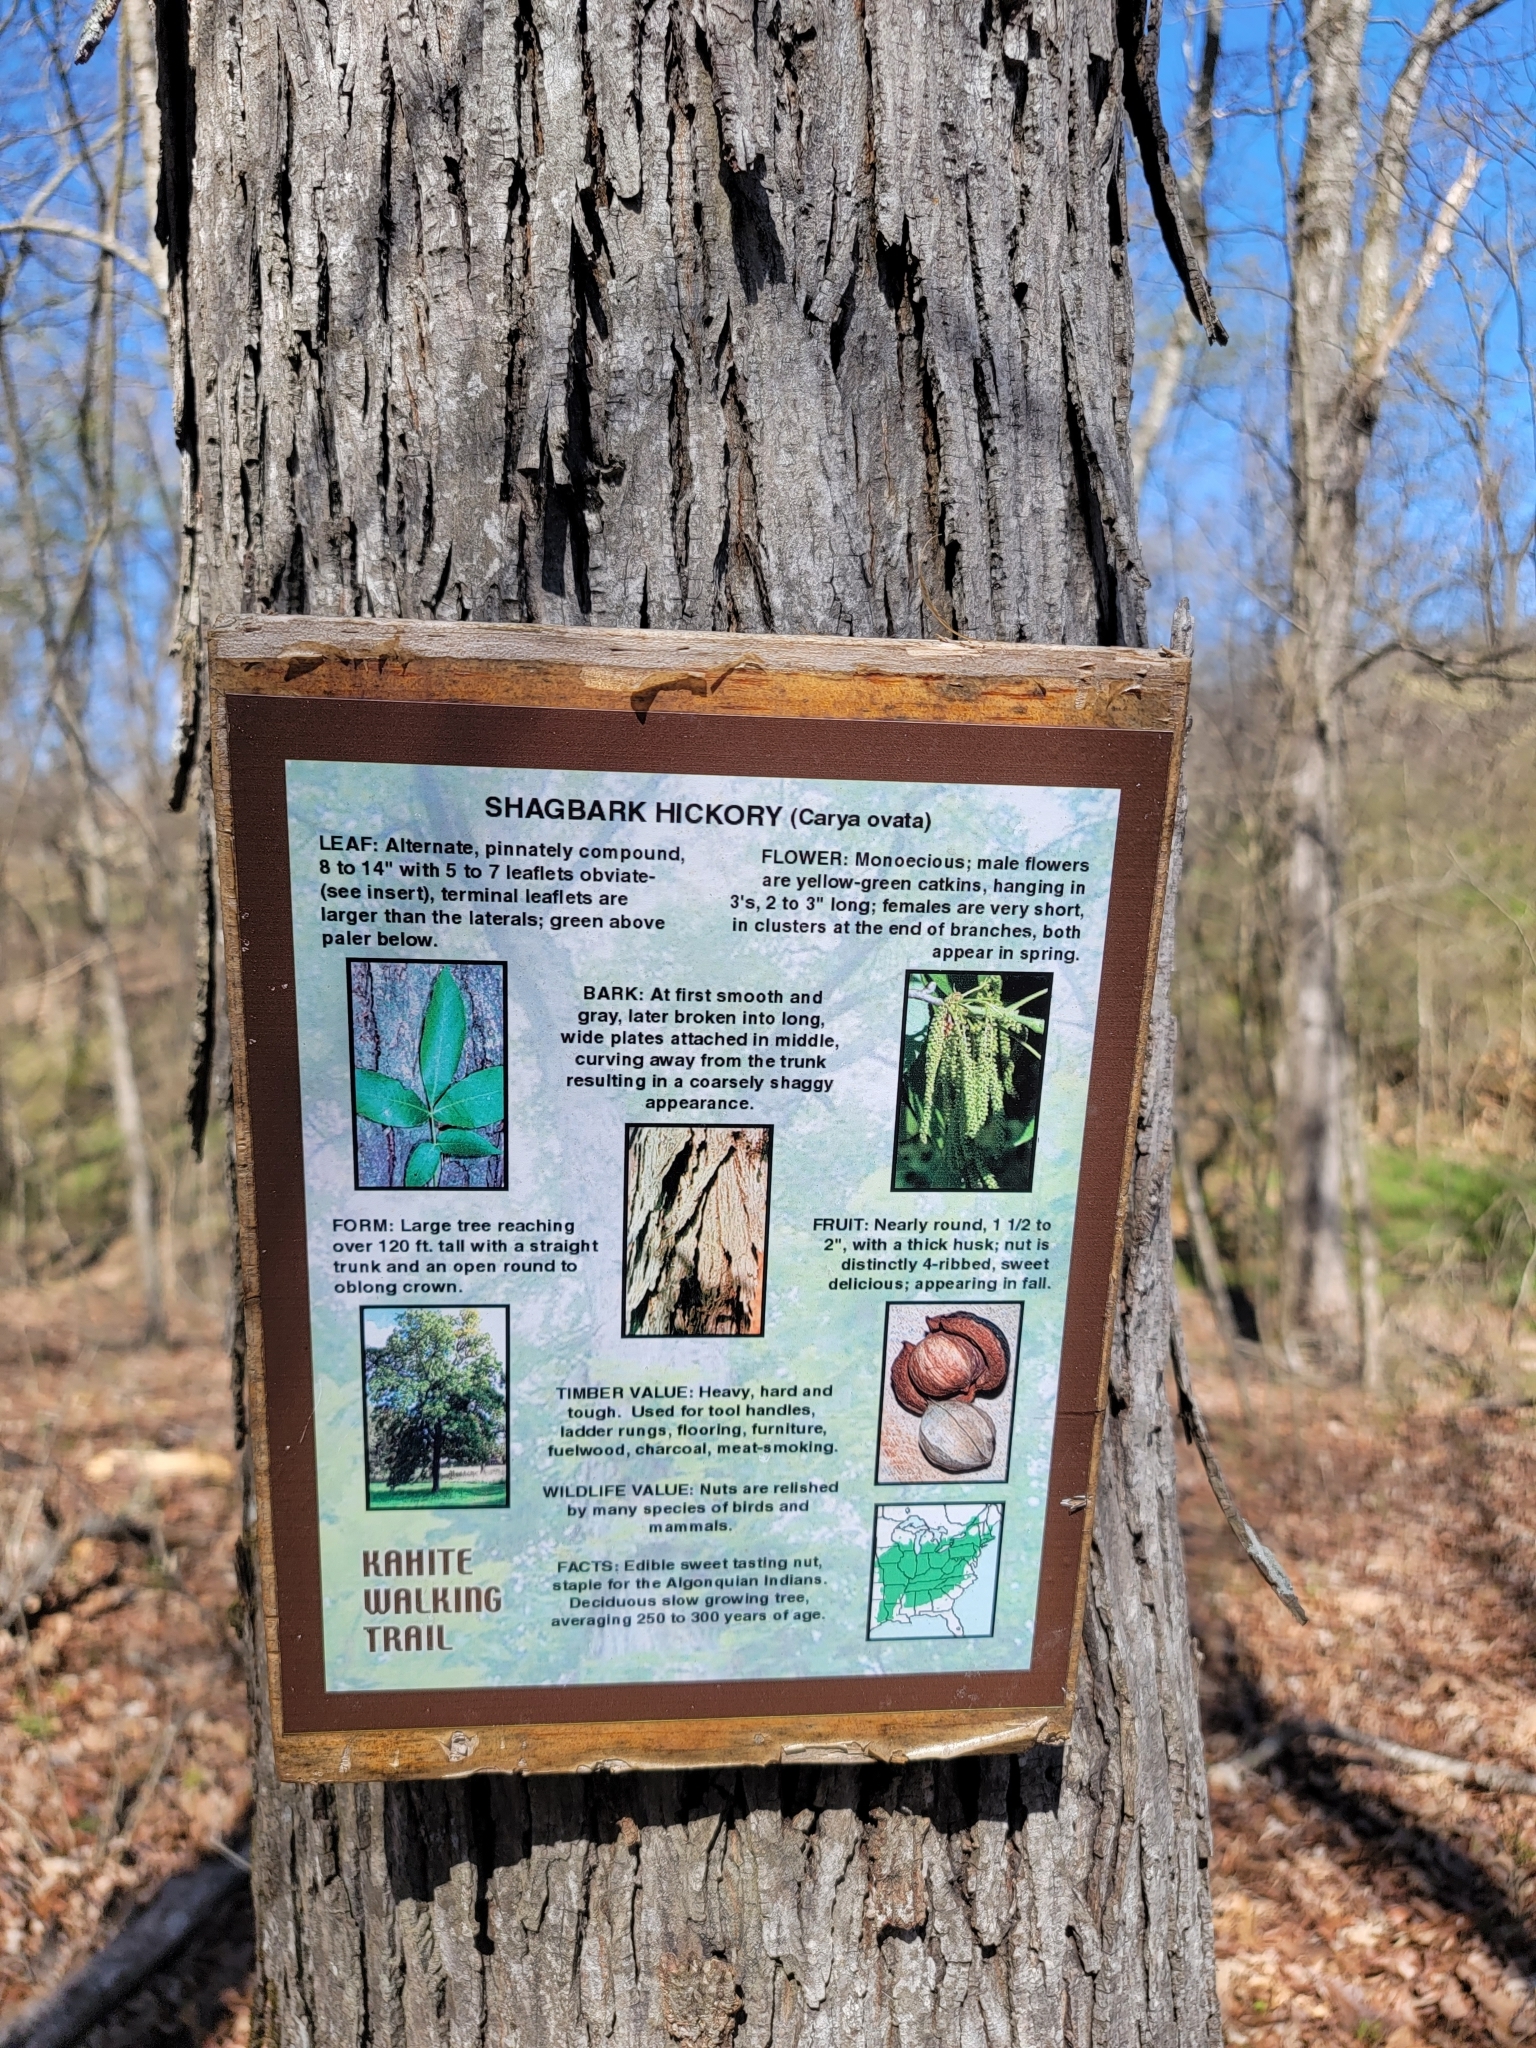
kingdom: Plantae
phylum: Tracheophyta
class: Magnoliopsida
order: Fagales
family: Juglandaceae
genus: Carya
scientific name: Carya ovata
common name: Shagbark hickory
